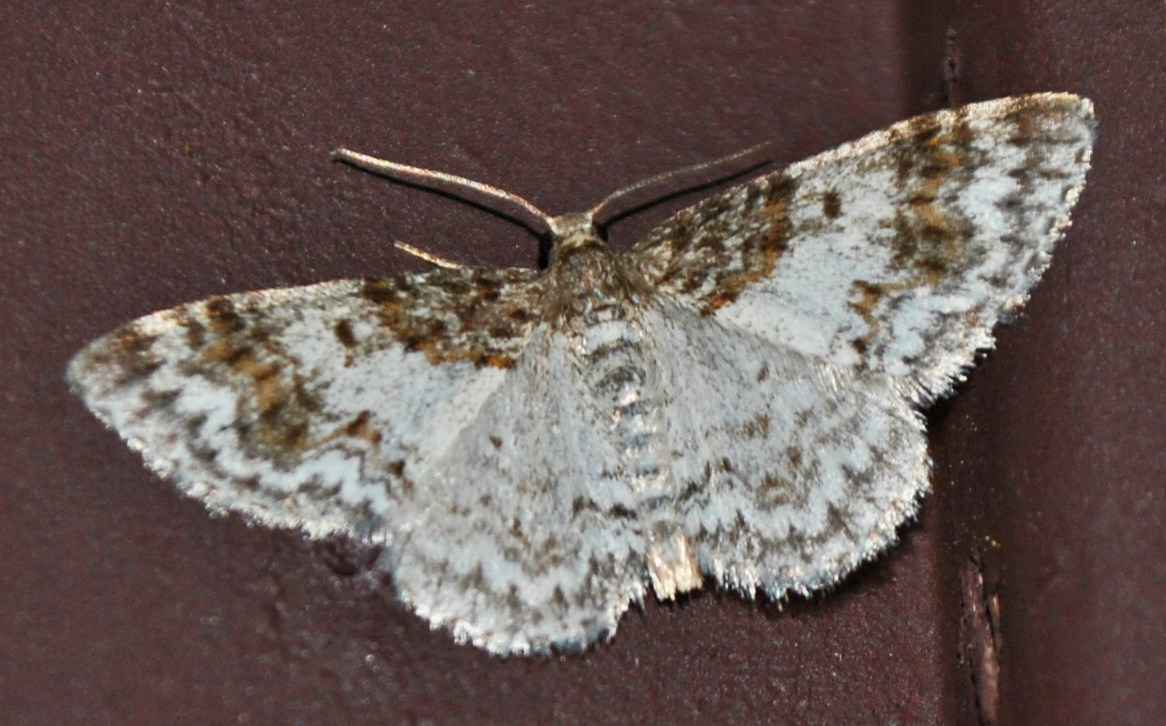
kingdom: Animalia
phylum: Arthropoda
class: Insecta
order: Lepidoptera
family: Geometridae
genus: Hydrelia
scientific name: Hydrelia condensata
